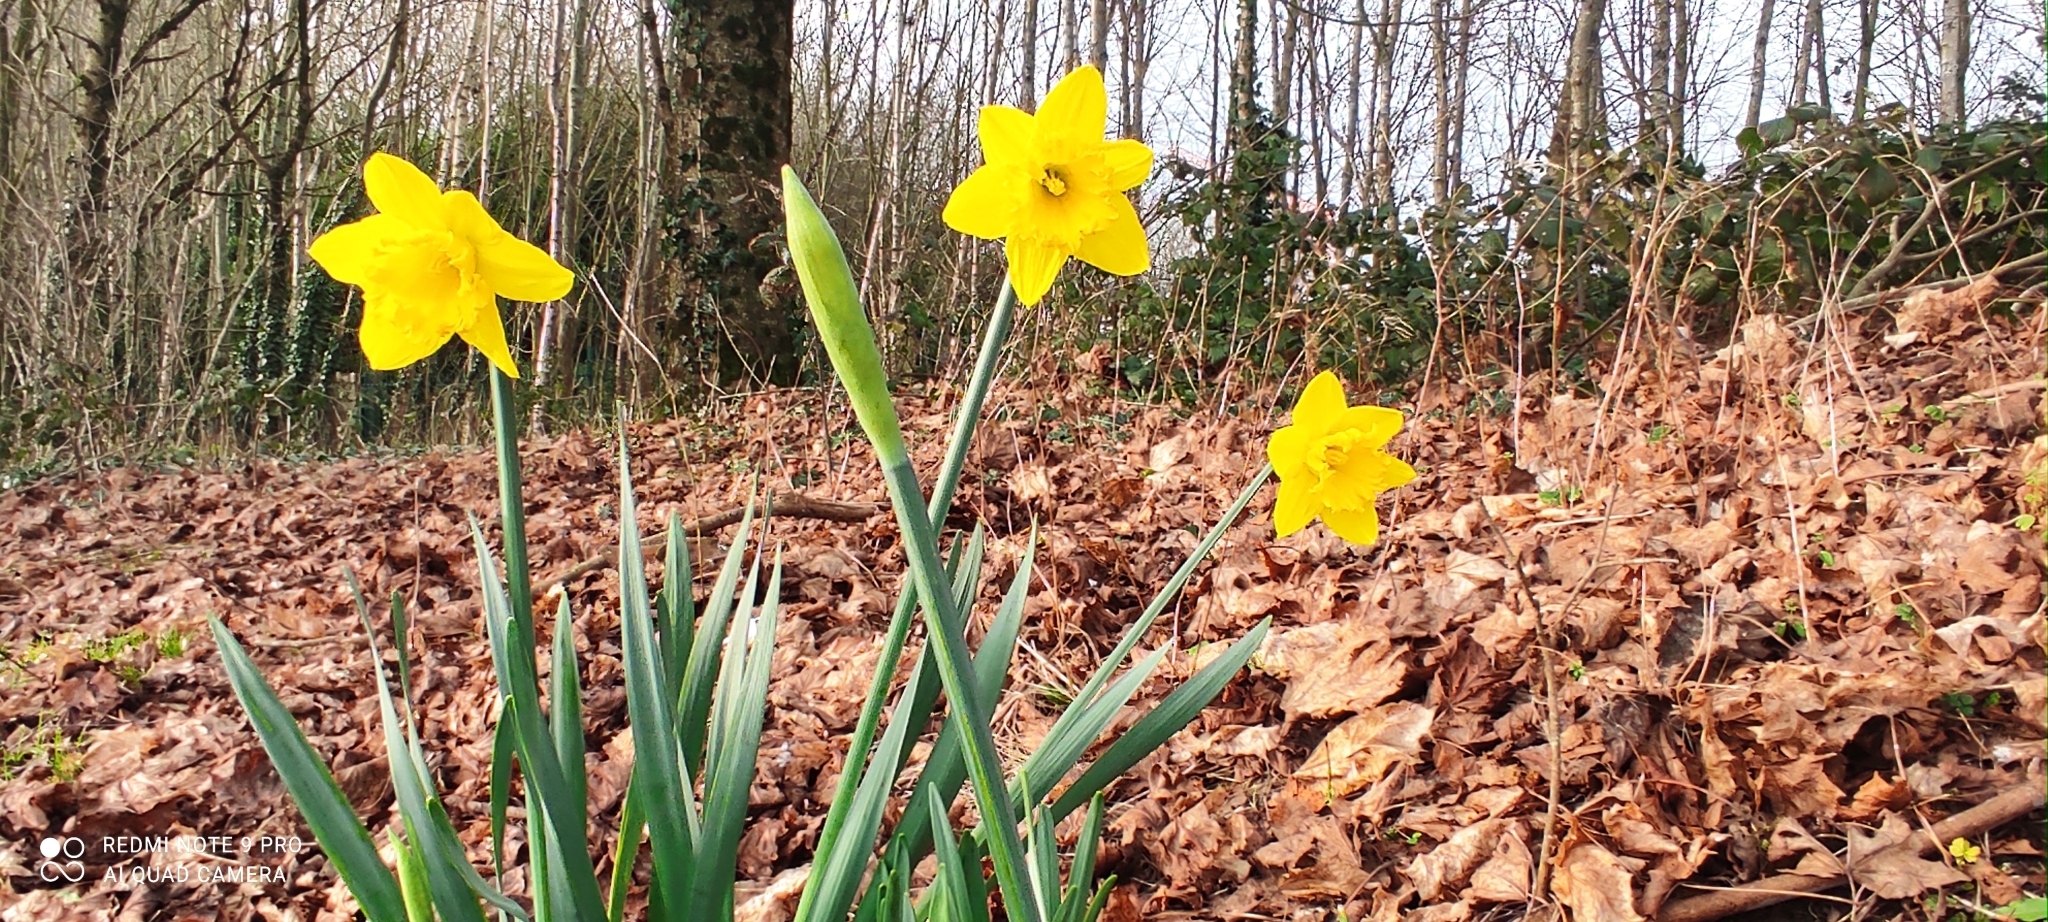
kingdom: Plantae
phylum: Tracheophyta
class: Liliopsida
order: Asparagales
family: Amaryllidaceae
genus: Narcissus
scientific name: Narcissus pseudonarcissus
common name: Daffodil
